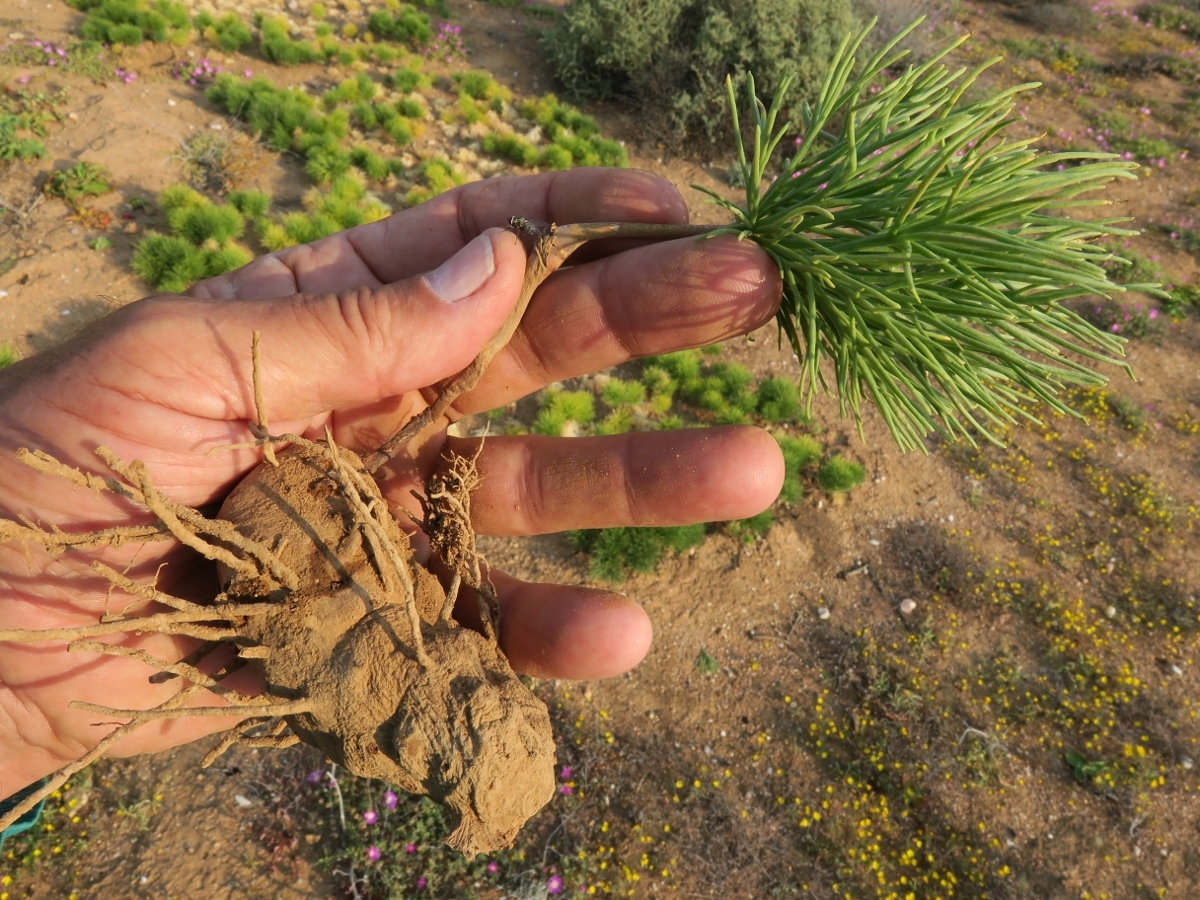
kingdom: Plantae
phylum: Tracheophyta
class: Liliopsida
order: Asparagales
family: Asparagaceae
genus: Eriospermum
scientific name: Eriospermum multifidum
